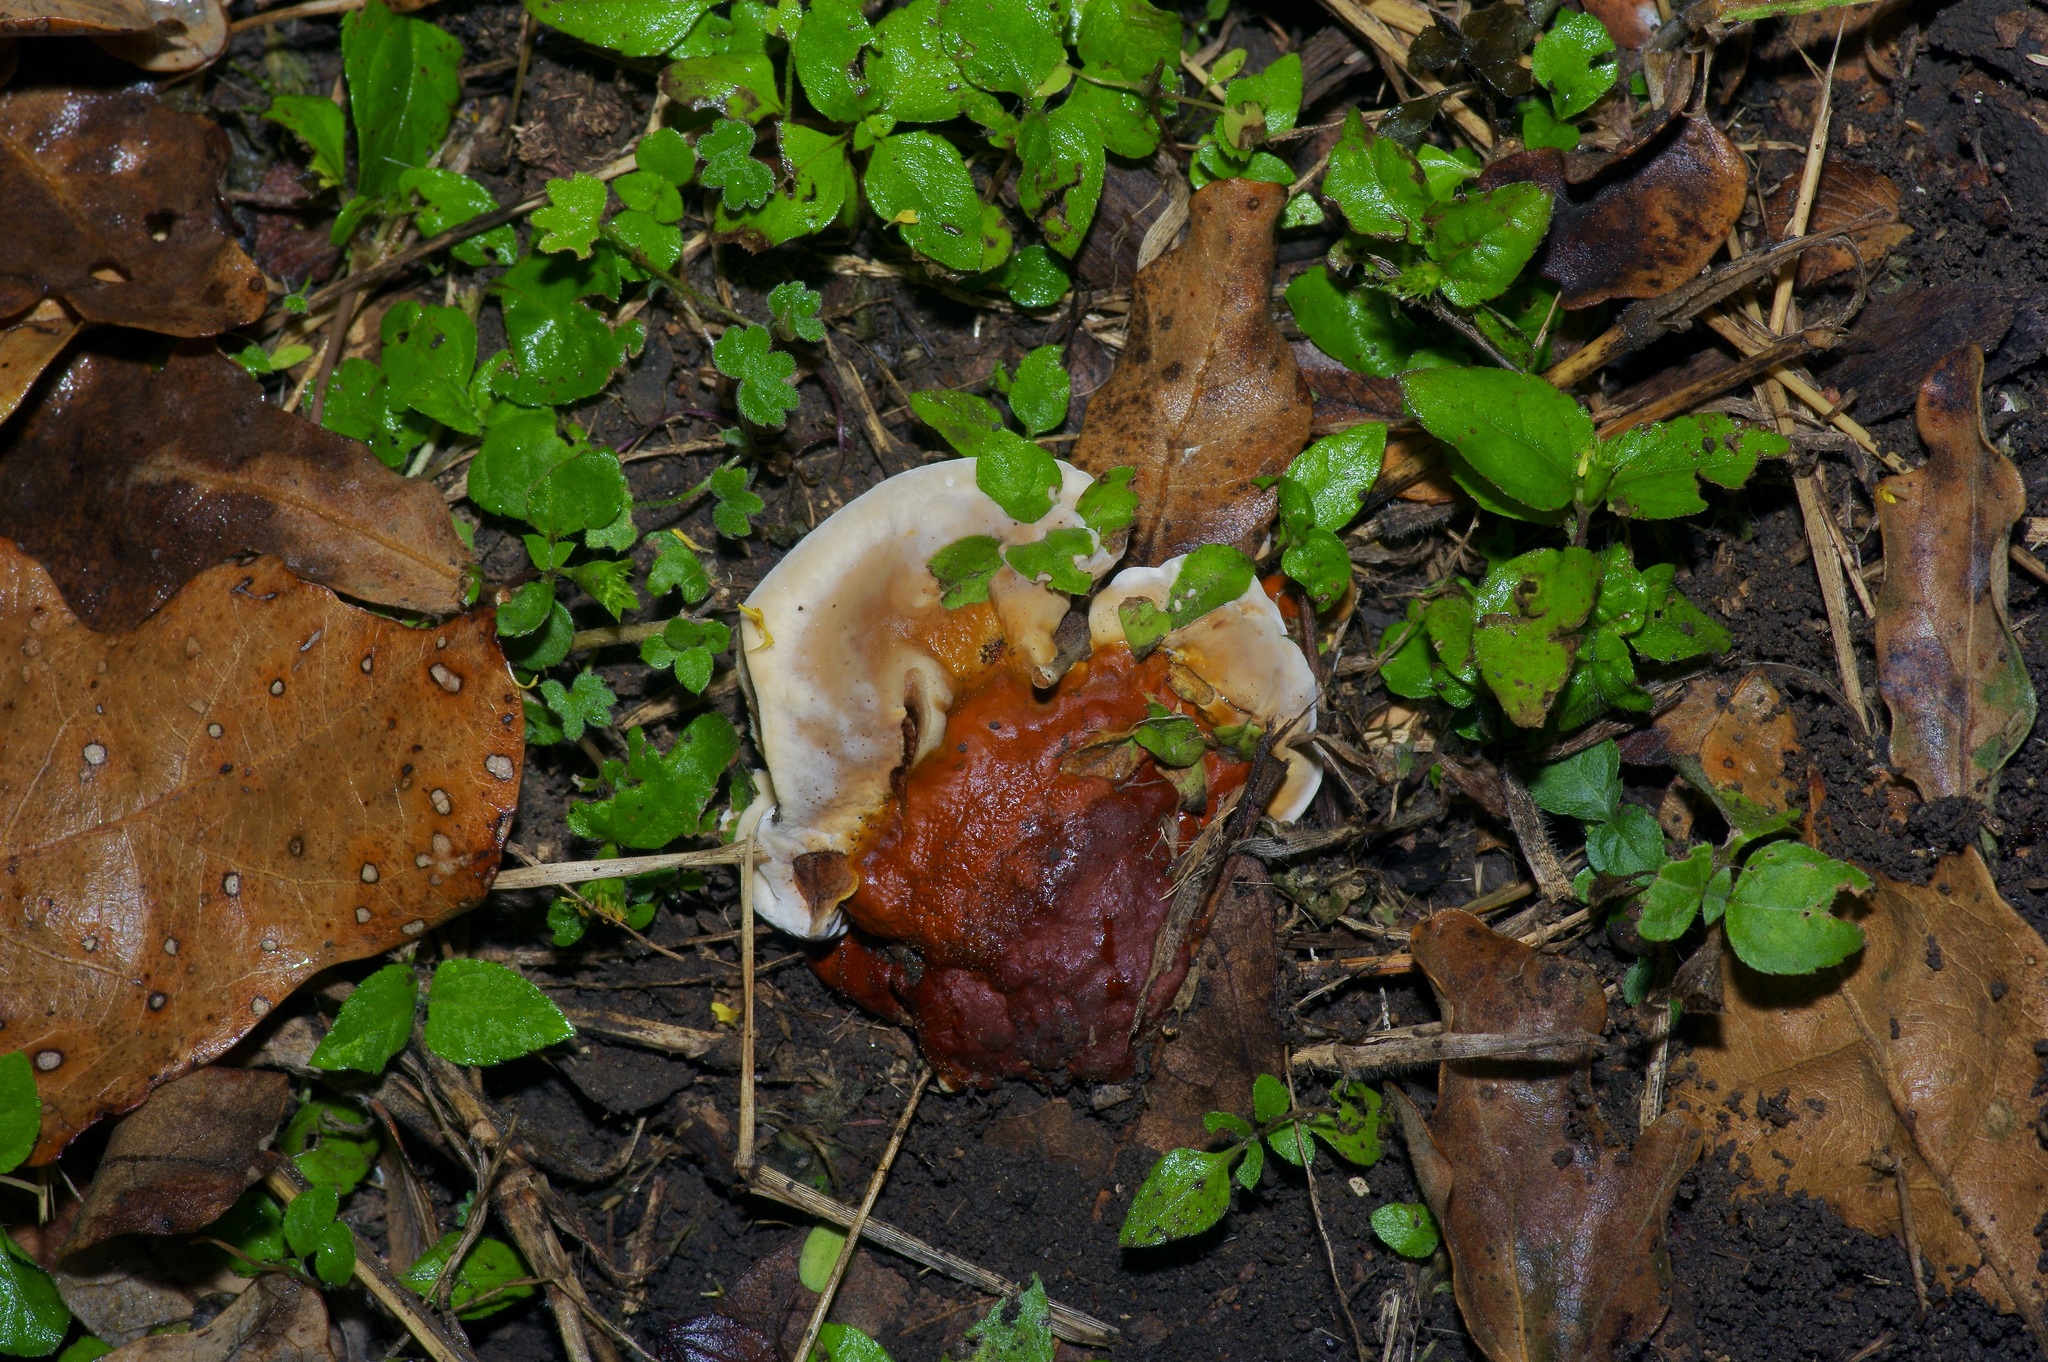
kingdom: Fungi
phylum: Basidiomycota
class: Agaricomycetes
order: Polyporales
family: Polyporaceae
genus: Ganoderma
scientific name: Ganoderma resinaceum
